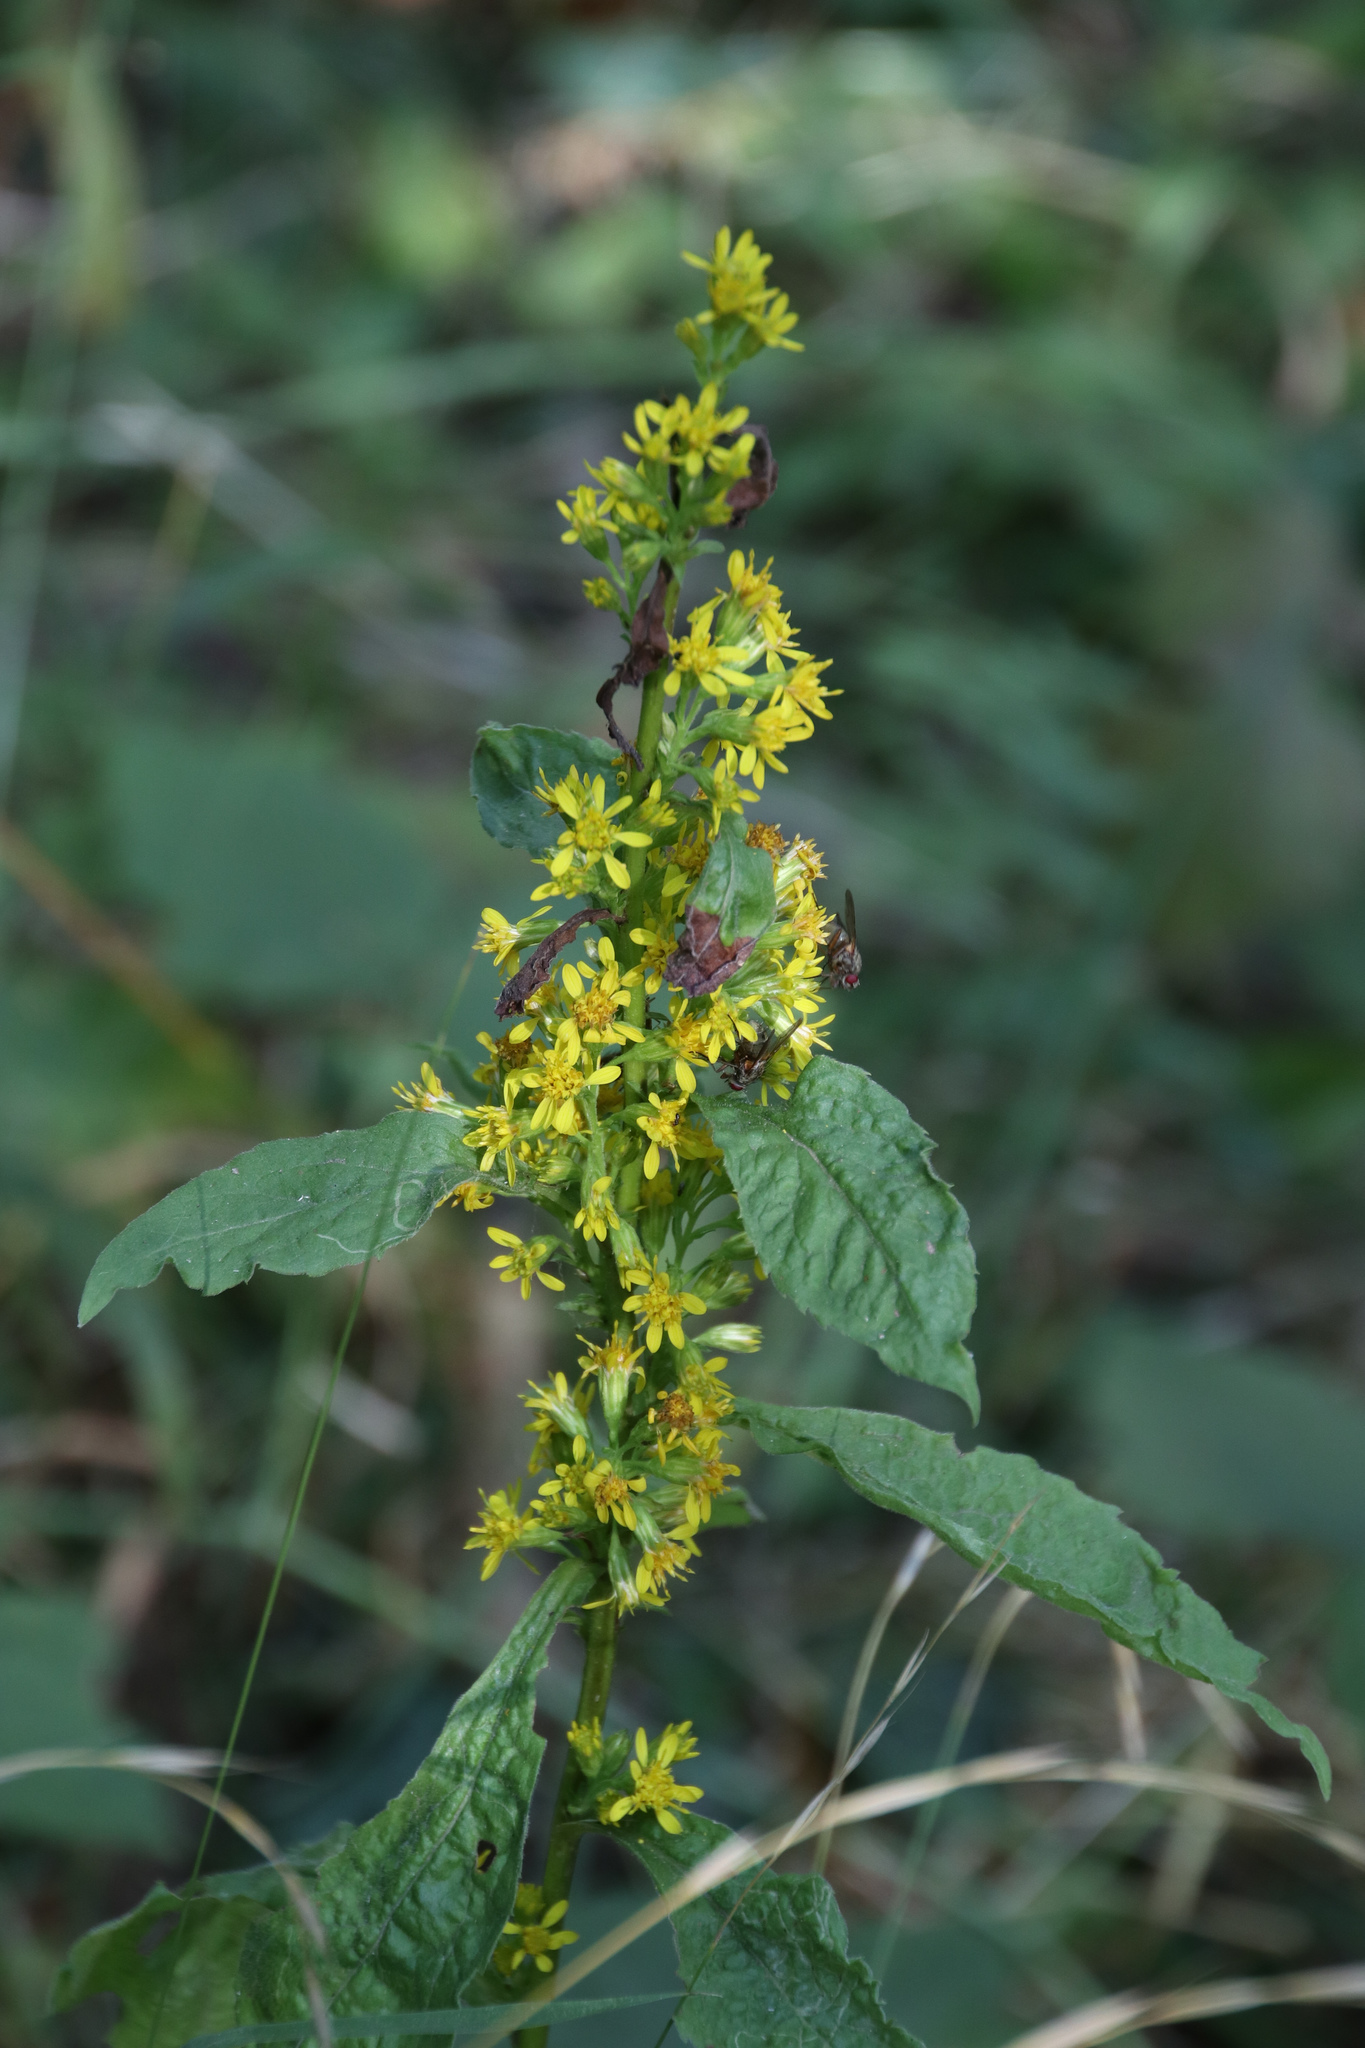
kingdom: Plantae
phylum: Tracheophyta
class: Magnoliopsida
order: Asterales
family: Asteraceae
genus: Solidago
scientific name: Solidago virgaurea
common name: Goldenrod
